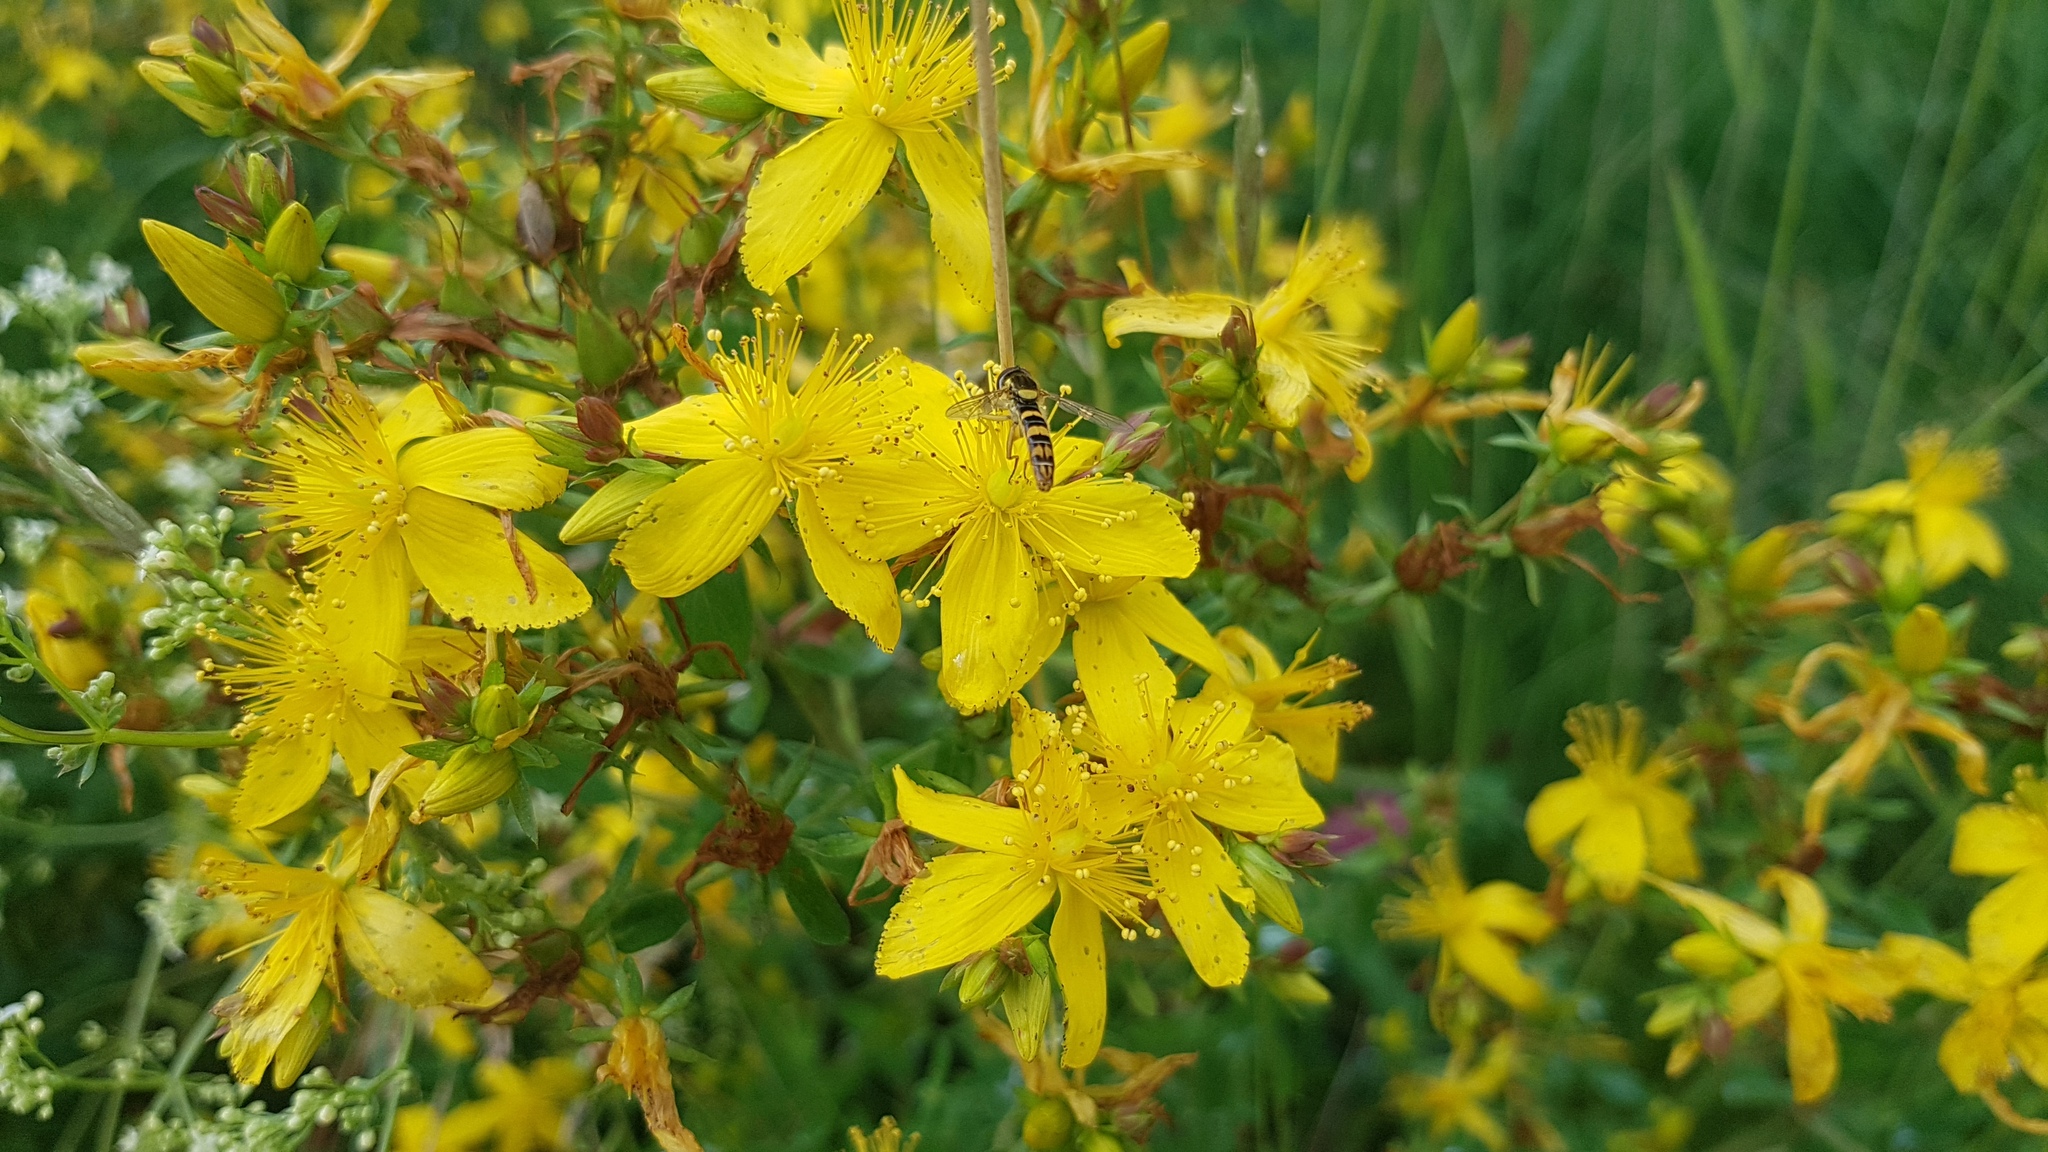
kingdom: Plantae
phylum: Tracheophyta
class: Magnoliopsida
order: Malpighiales
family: Hypericaceae
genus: Hypericum
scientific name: Hypericum perforatum
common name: Common st. johnswort
